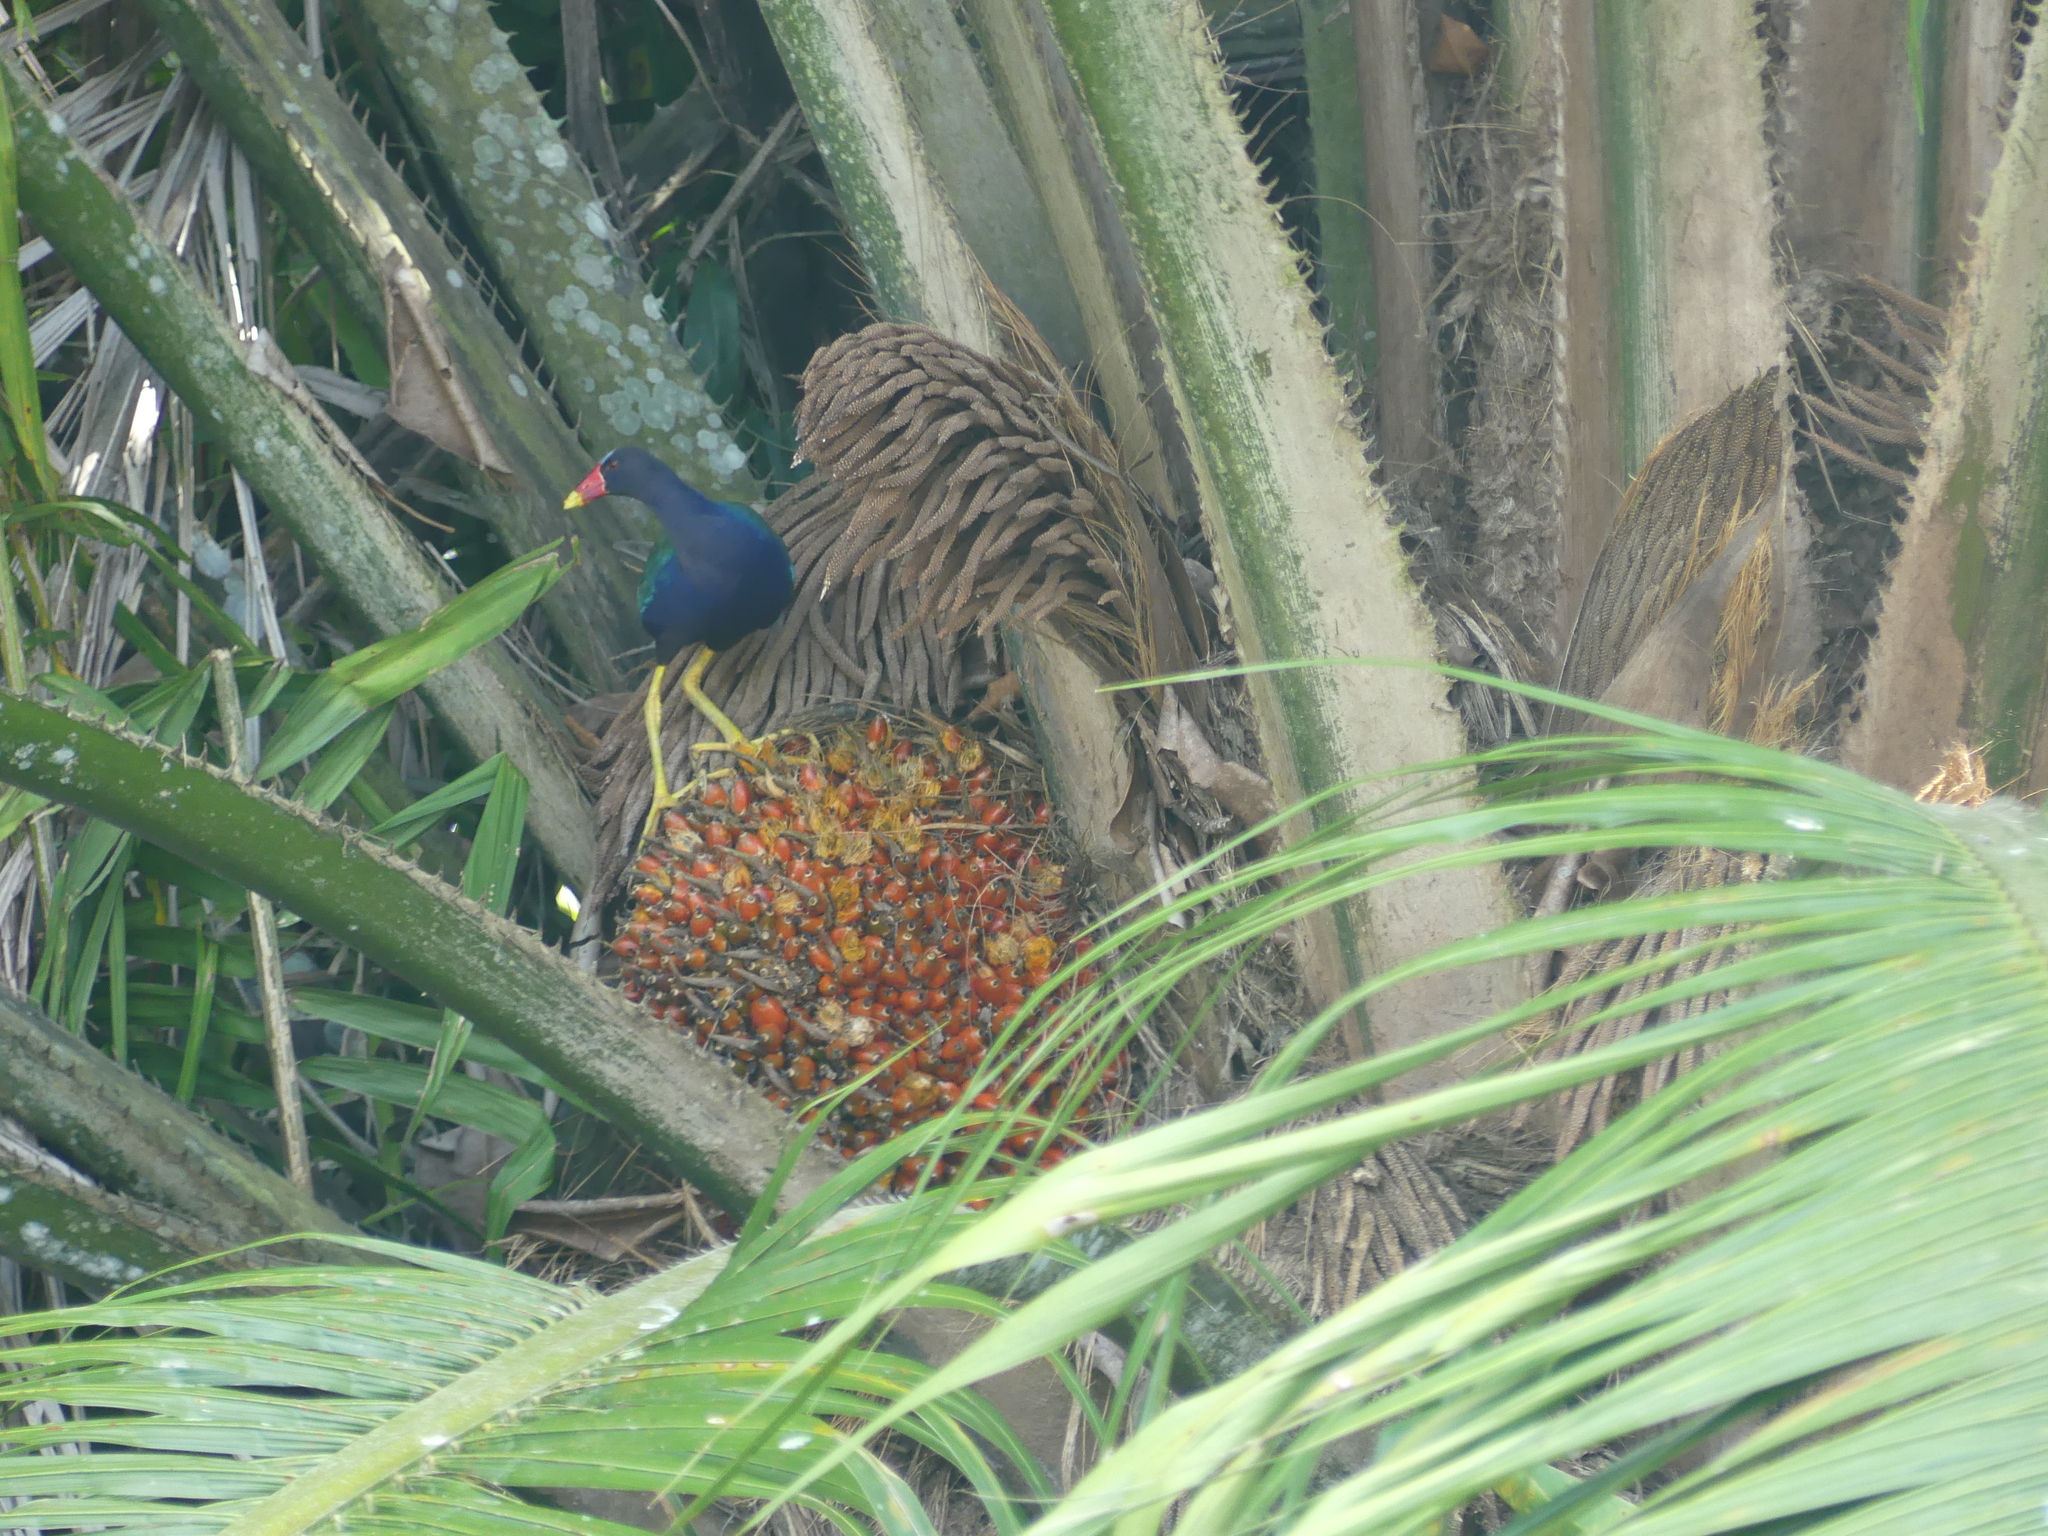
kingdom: Animalia
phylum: Chordata
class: Aves
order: Gruiformes
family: Rallidae
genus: Porphyrio
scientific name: Porphyrio martinica
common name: Purple gallinule
